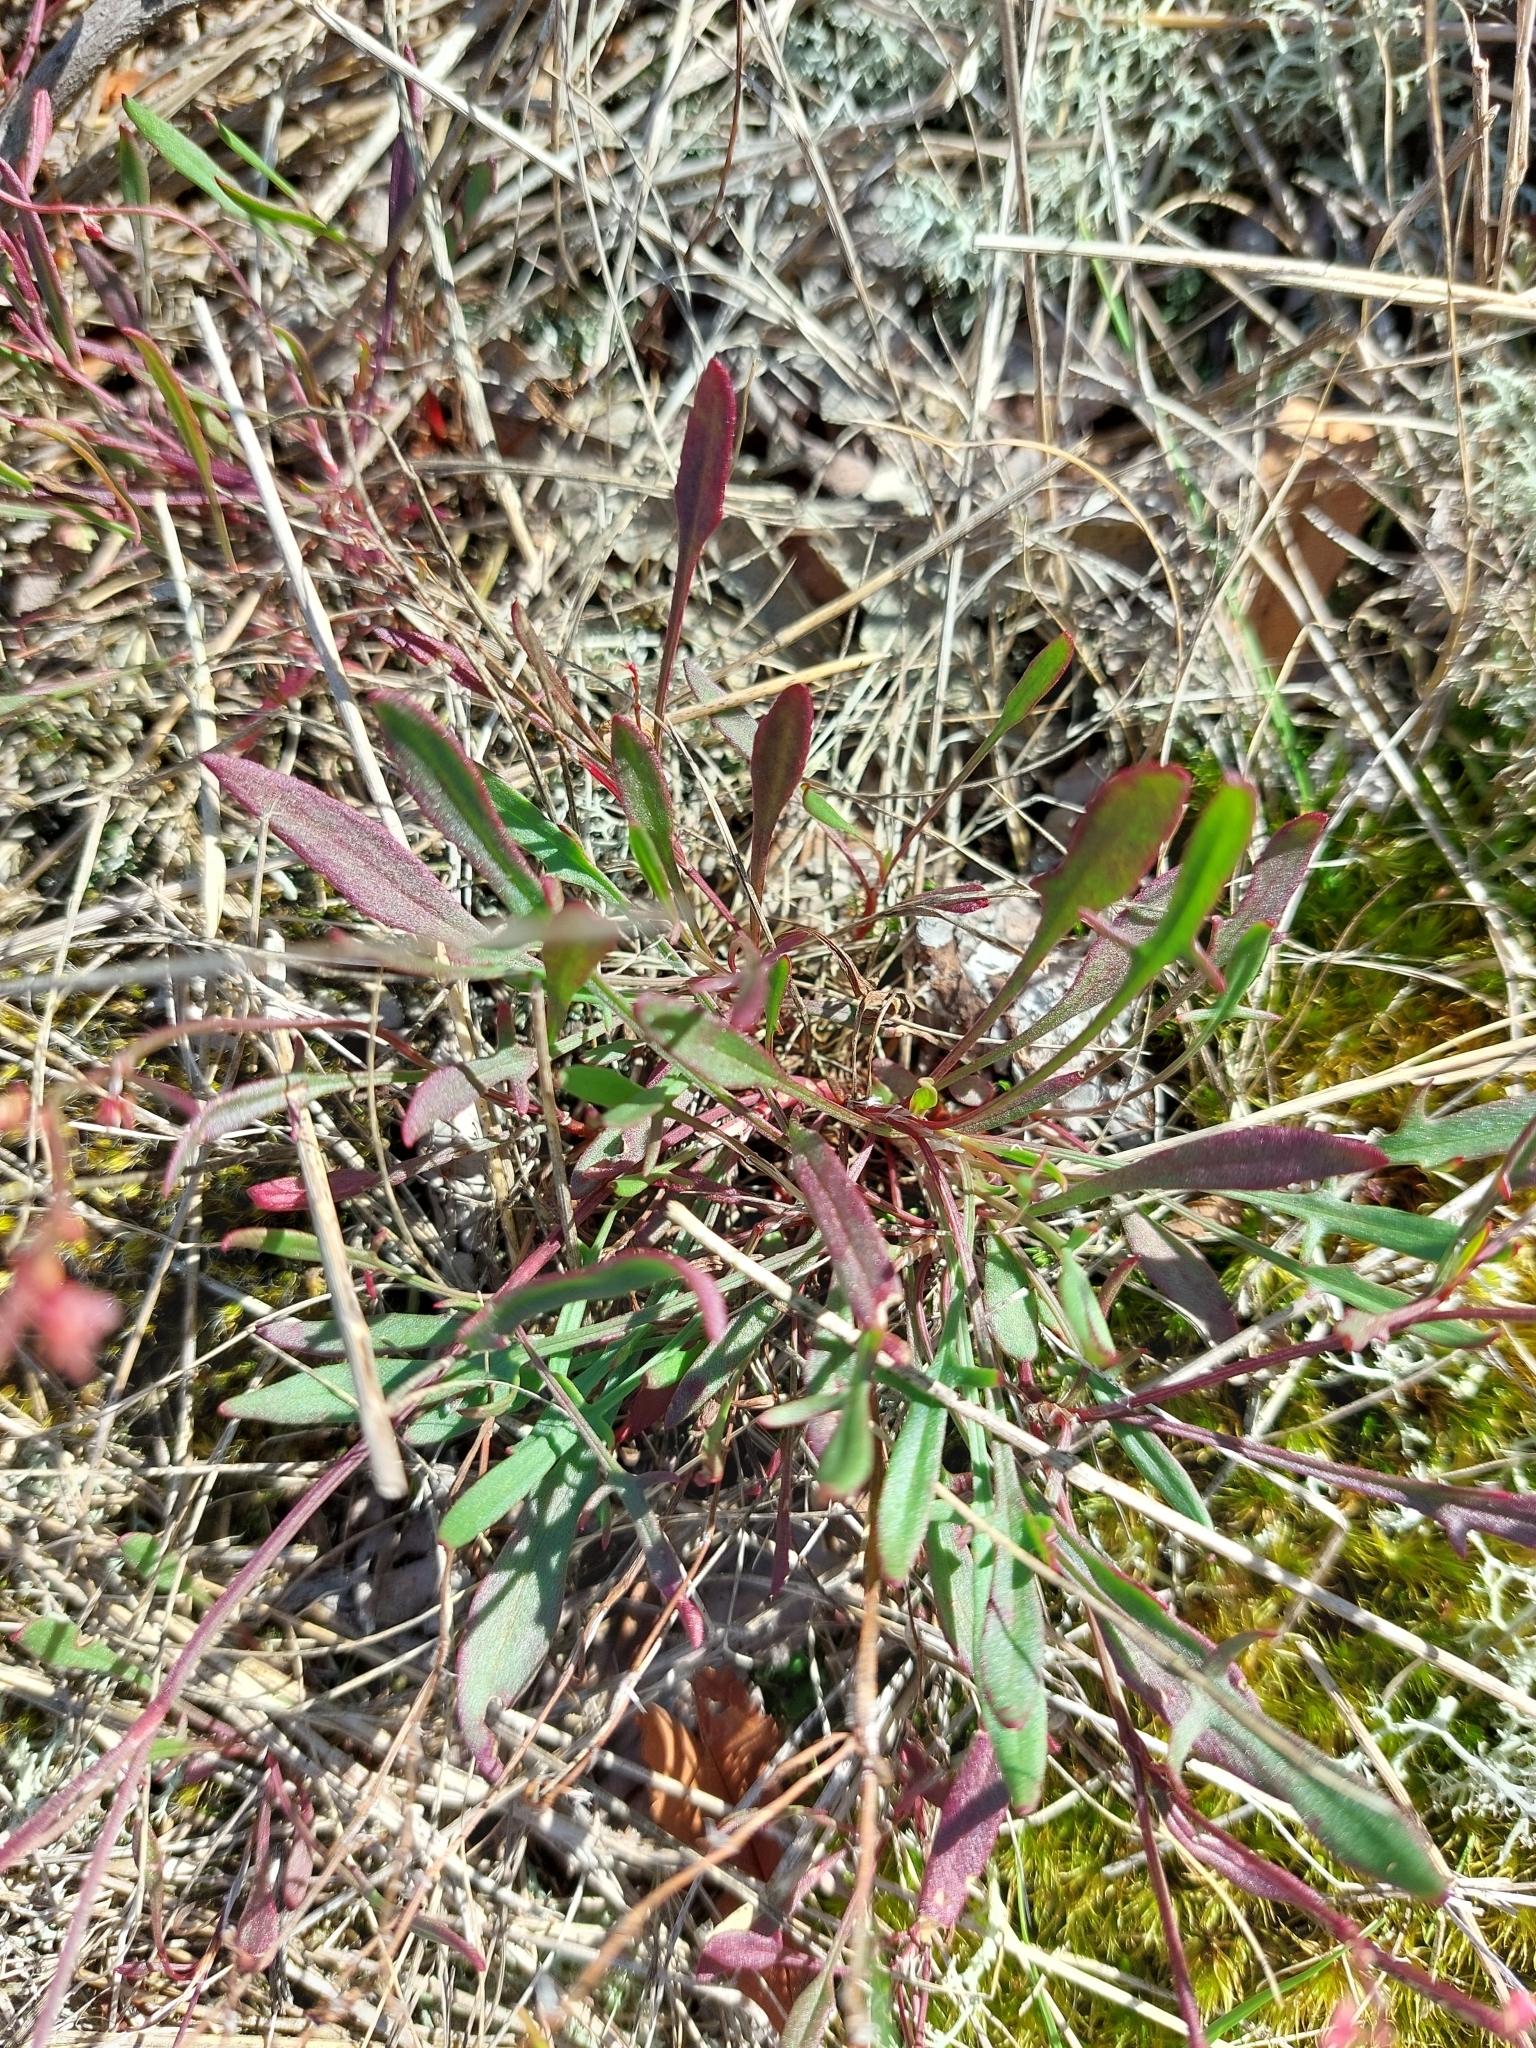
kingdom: Plantae
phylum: Tracheophyta
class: Magnoliopsida
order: Caryophyllales
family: Polygonaceae
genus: Rumex
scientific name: Rumex acetosella
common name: Common sheep sorrel
